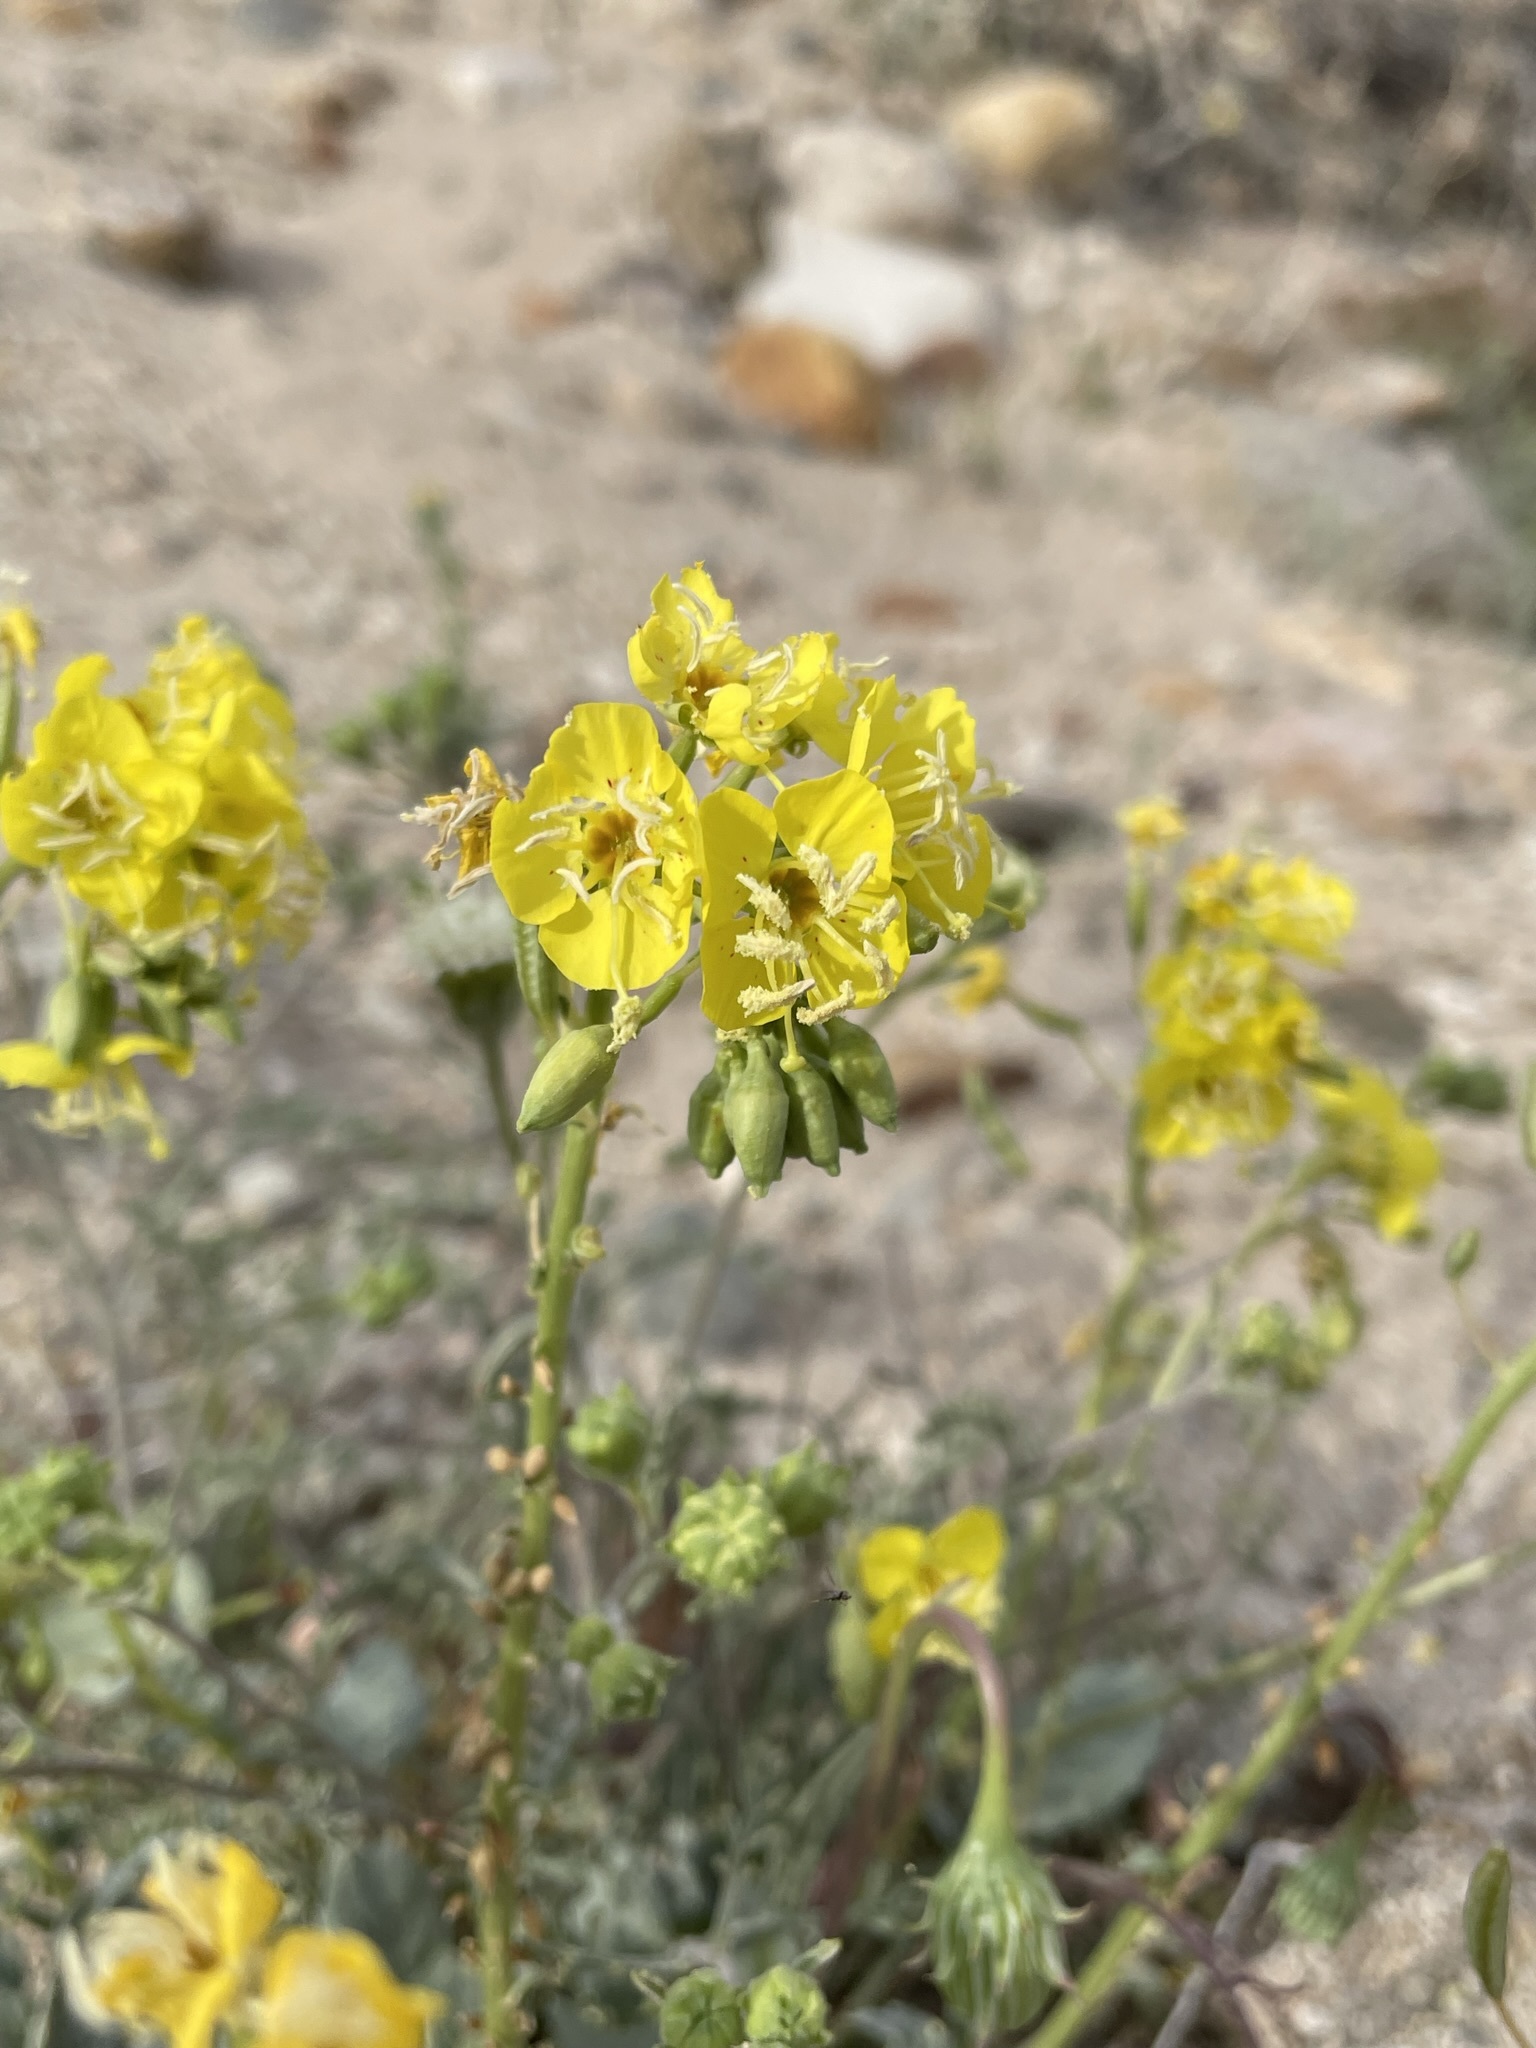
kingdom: Plantae
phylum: Tracheophyta
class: Magnoliopsida
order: Myrtales
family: Onagraceae
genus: Chylismia
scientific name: Chylismia claviformis
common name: Browneyes
